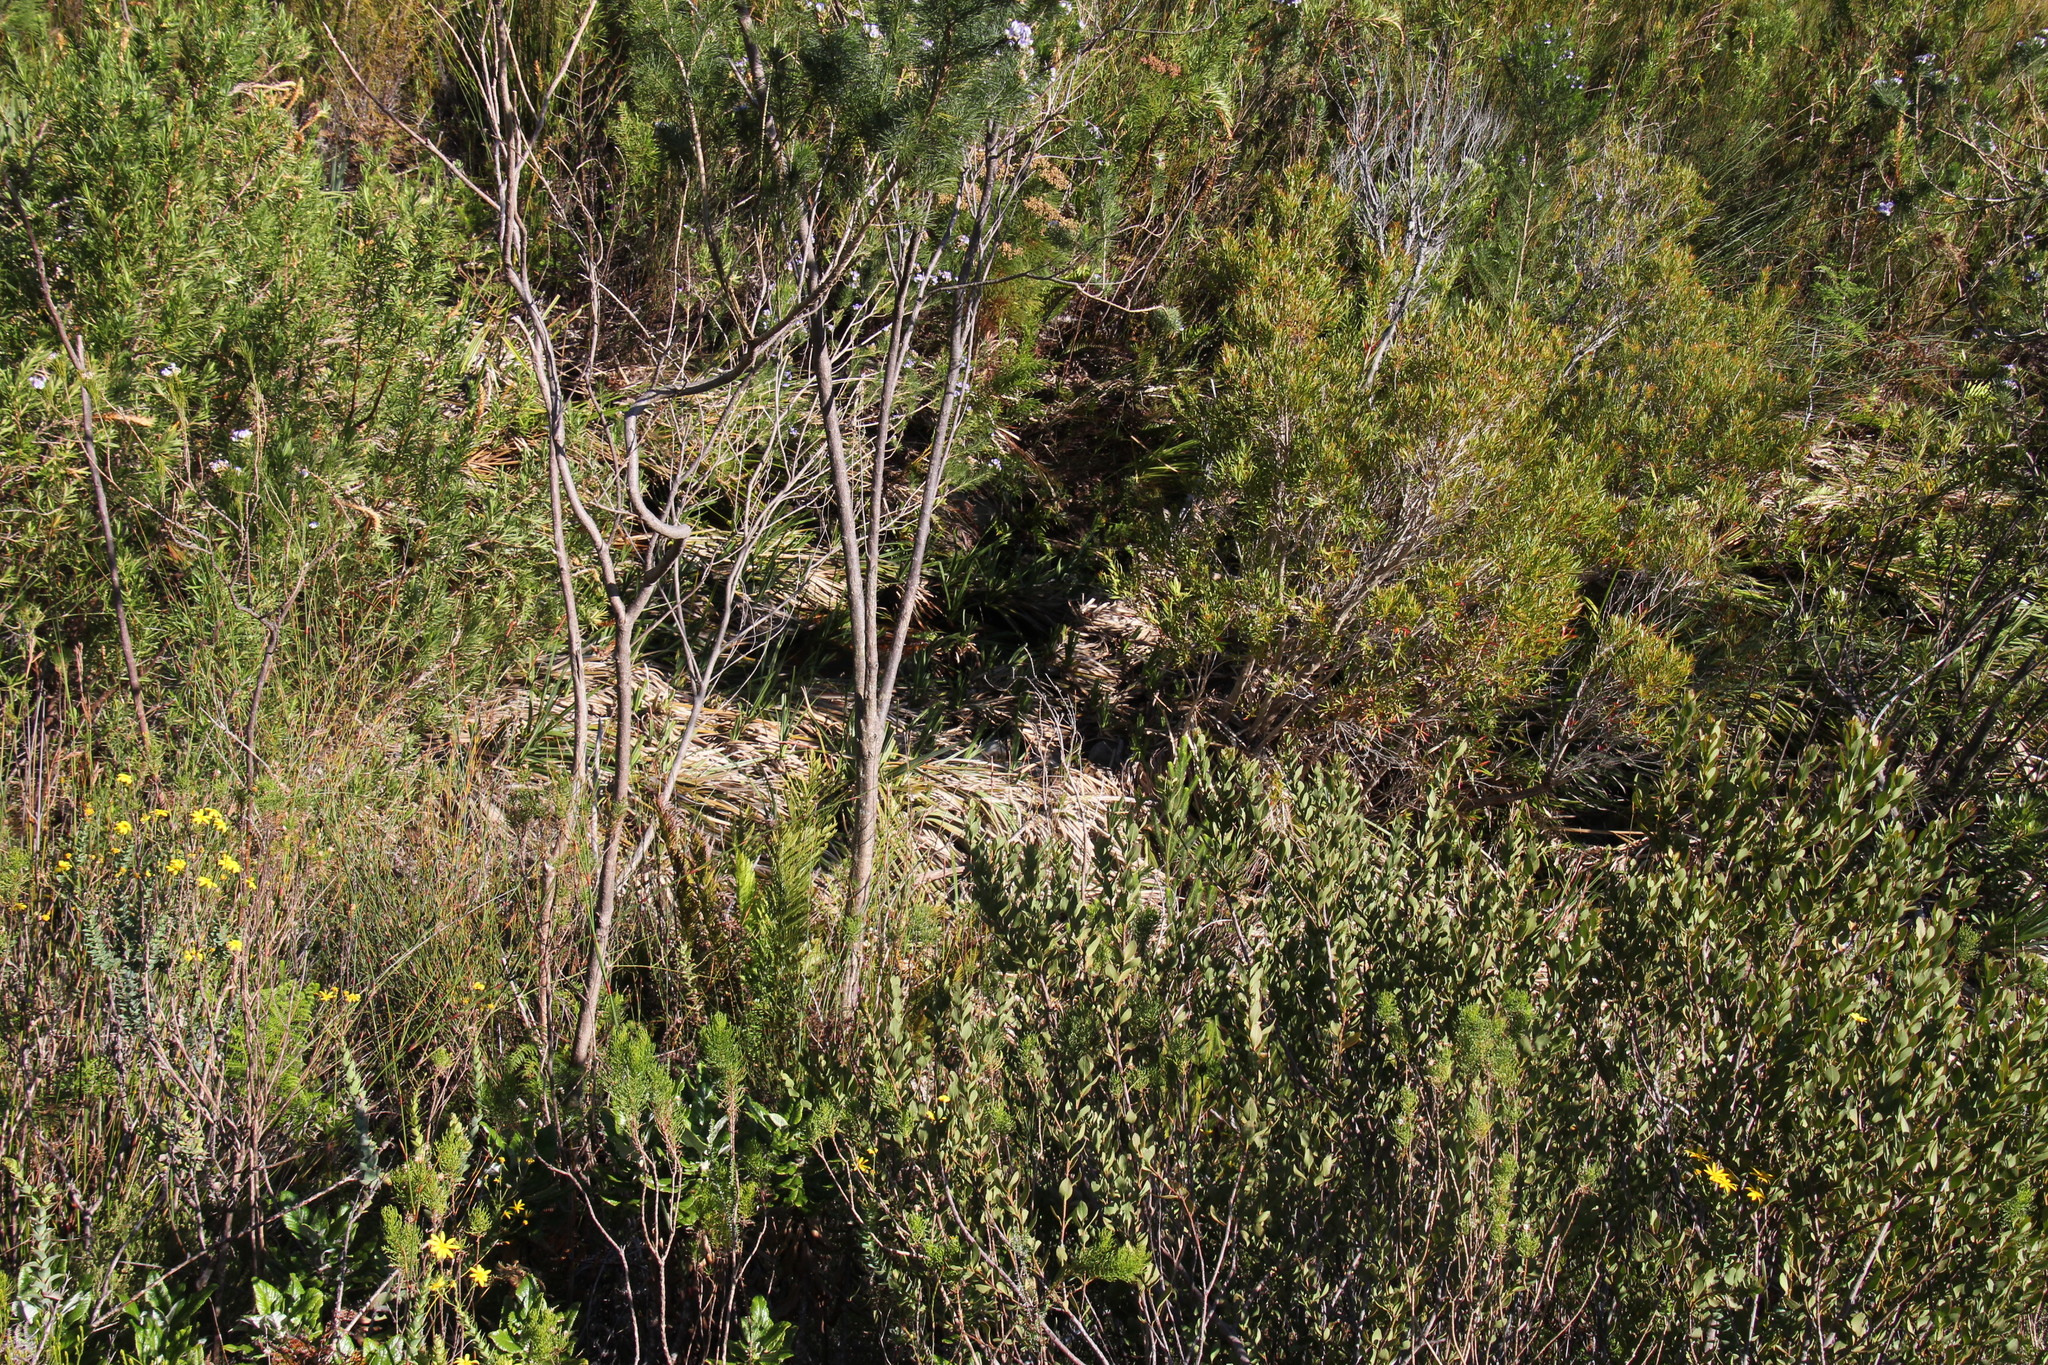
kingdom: Plantae
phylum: Tracheophyta
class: Liliopsida
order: Poales
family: Thurniaceae
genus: Prionium
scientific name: Prionium serratum
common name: Palmiet
